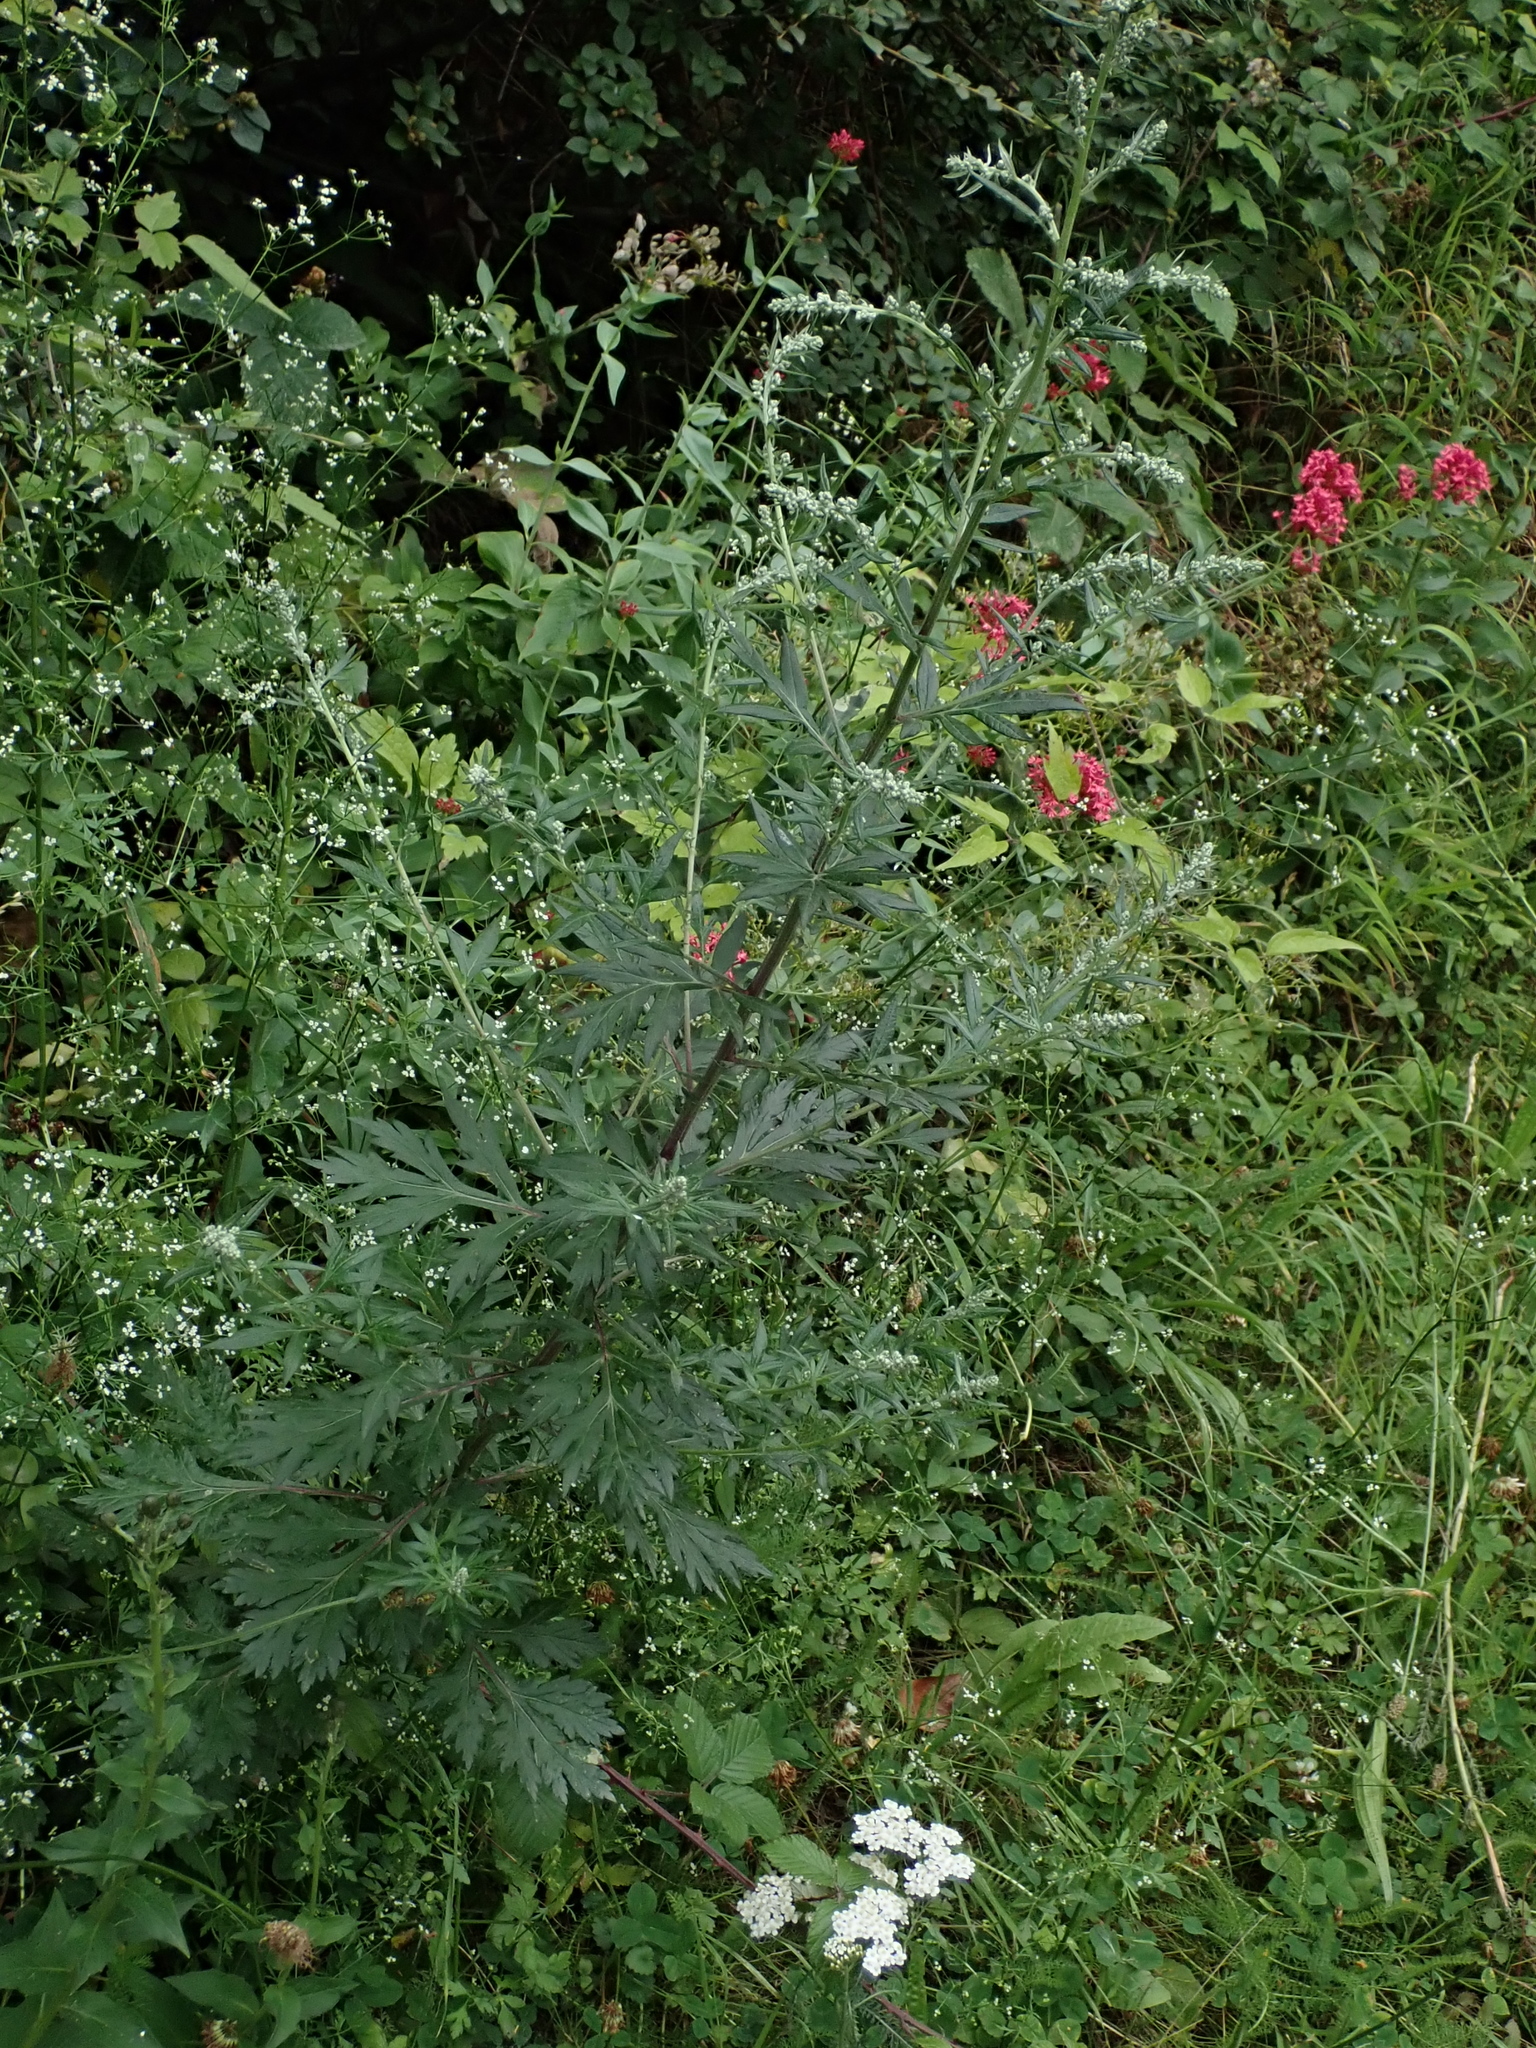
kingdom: Plantae
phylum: Tracheophyta
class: Magnoliopsida
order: Asterales
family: Asteraceae
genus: Artemisia
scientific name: Artemisia vulgaris
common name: Mugwort
